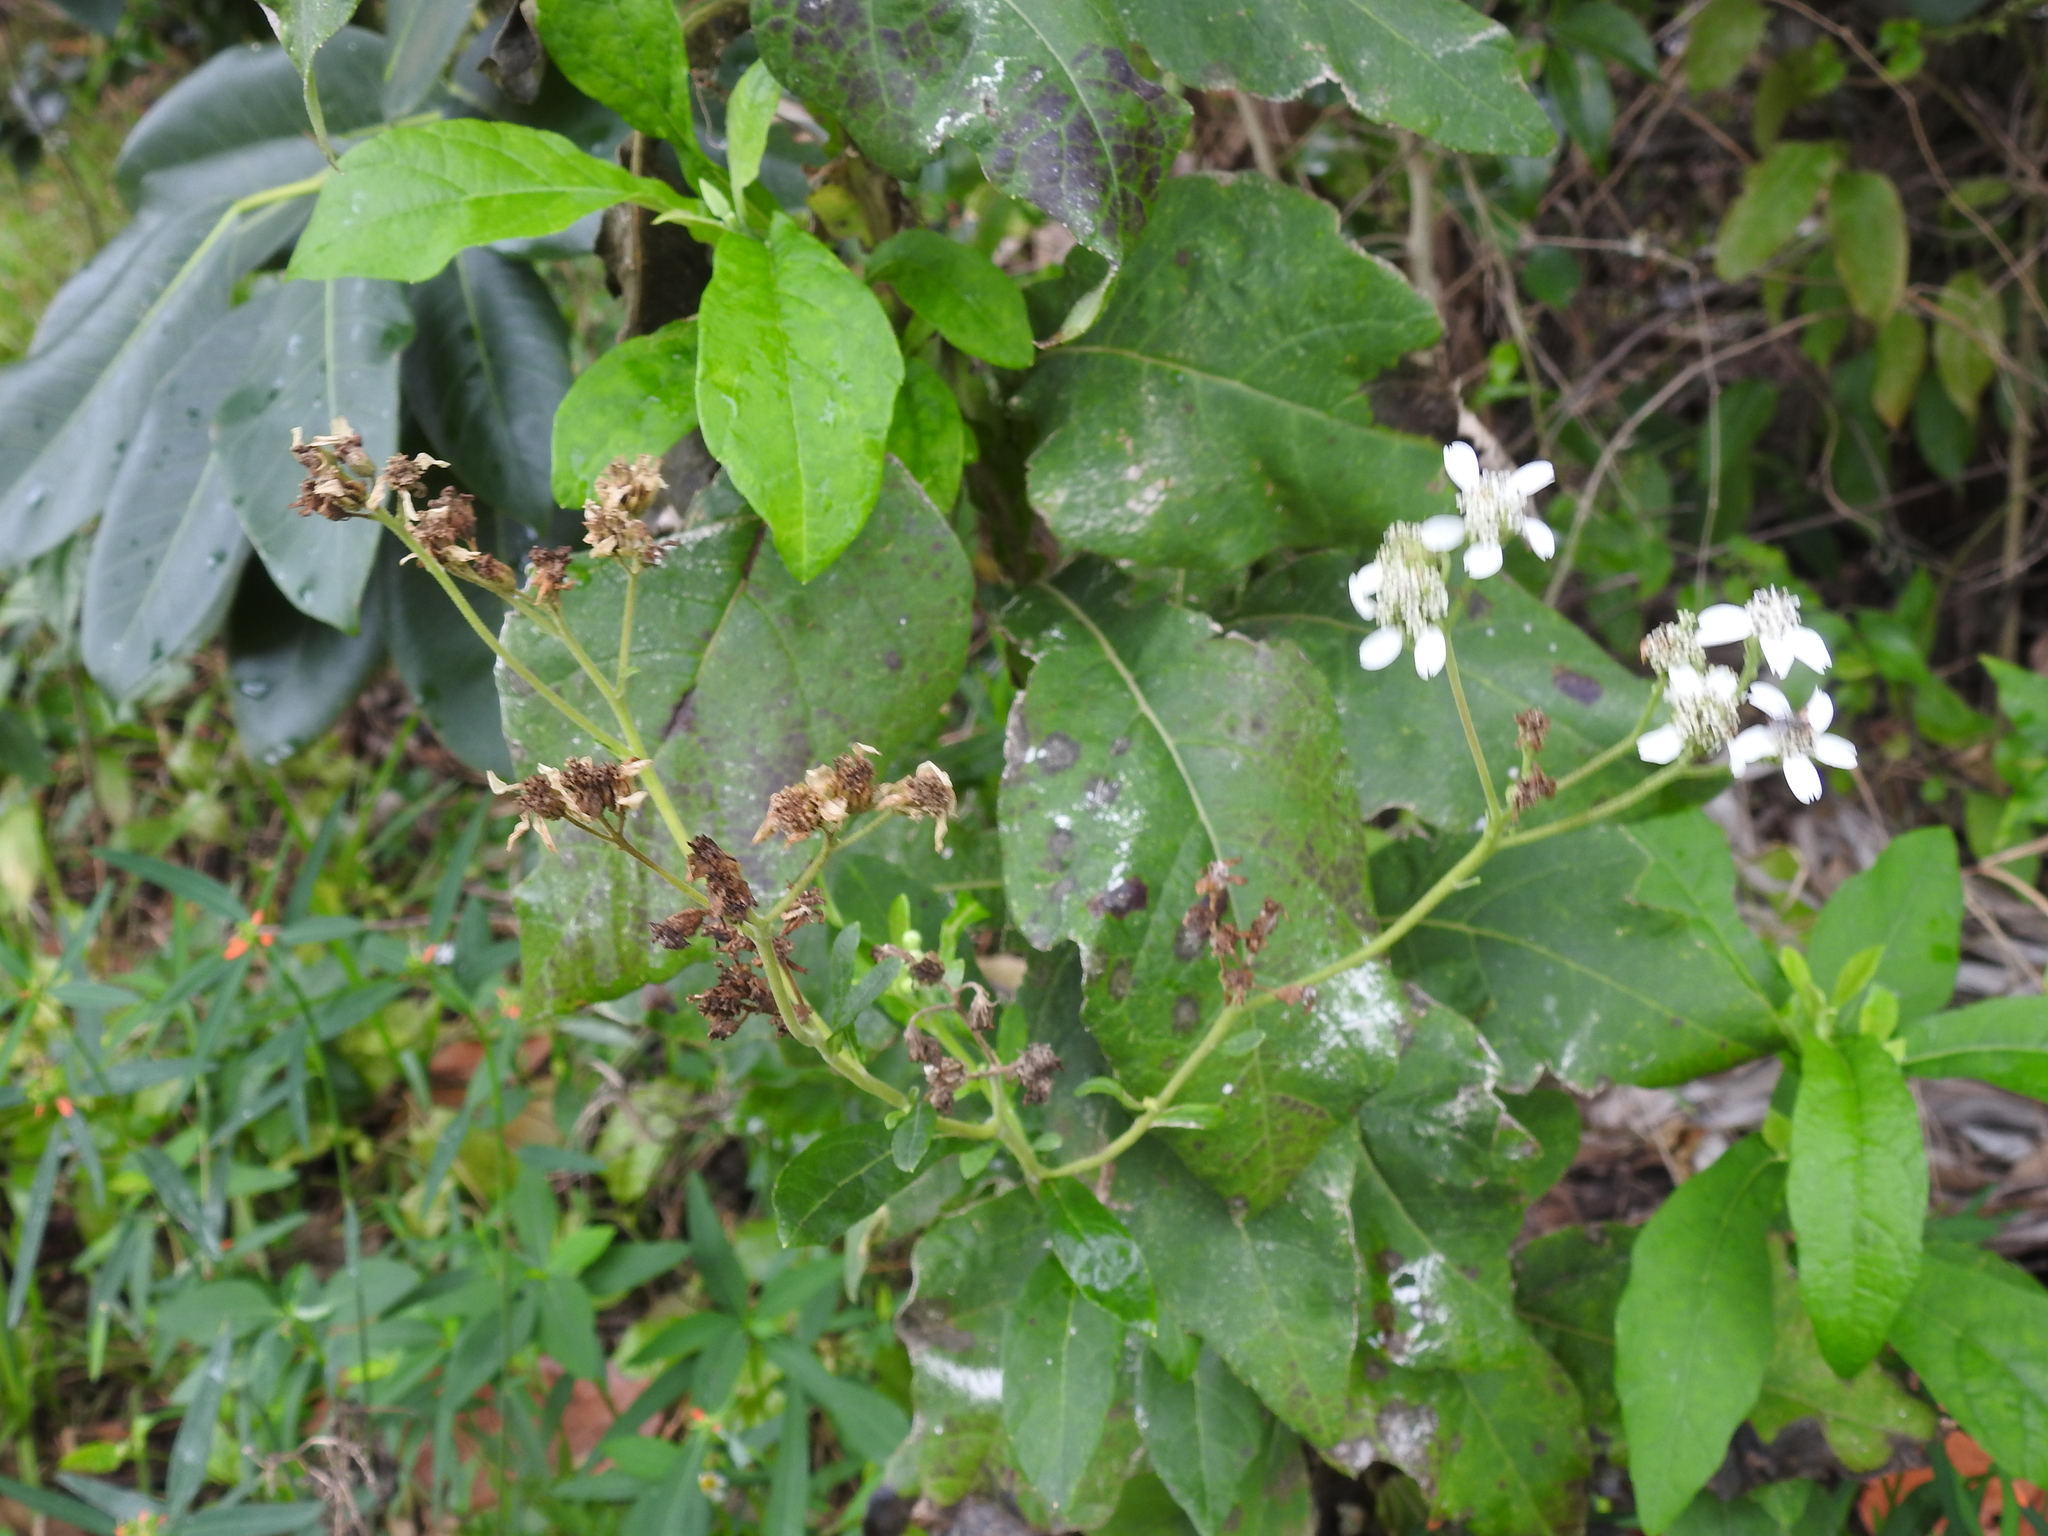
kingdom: Plantae
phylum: Tracheophyta
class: Magnoliopsida
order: Asterales
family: Asteraceae
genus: Verbesina
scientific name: Verbesina virginica
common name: Frostweed
